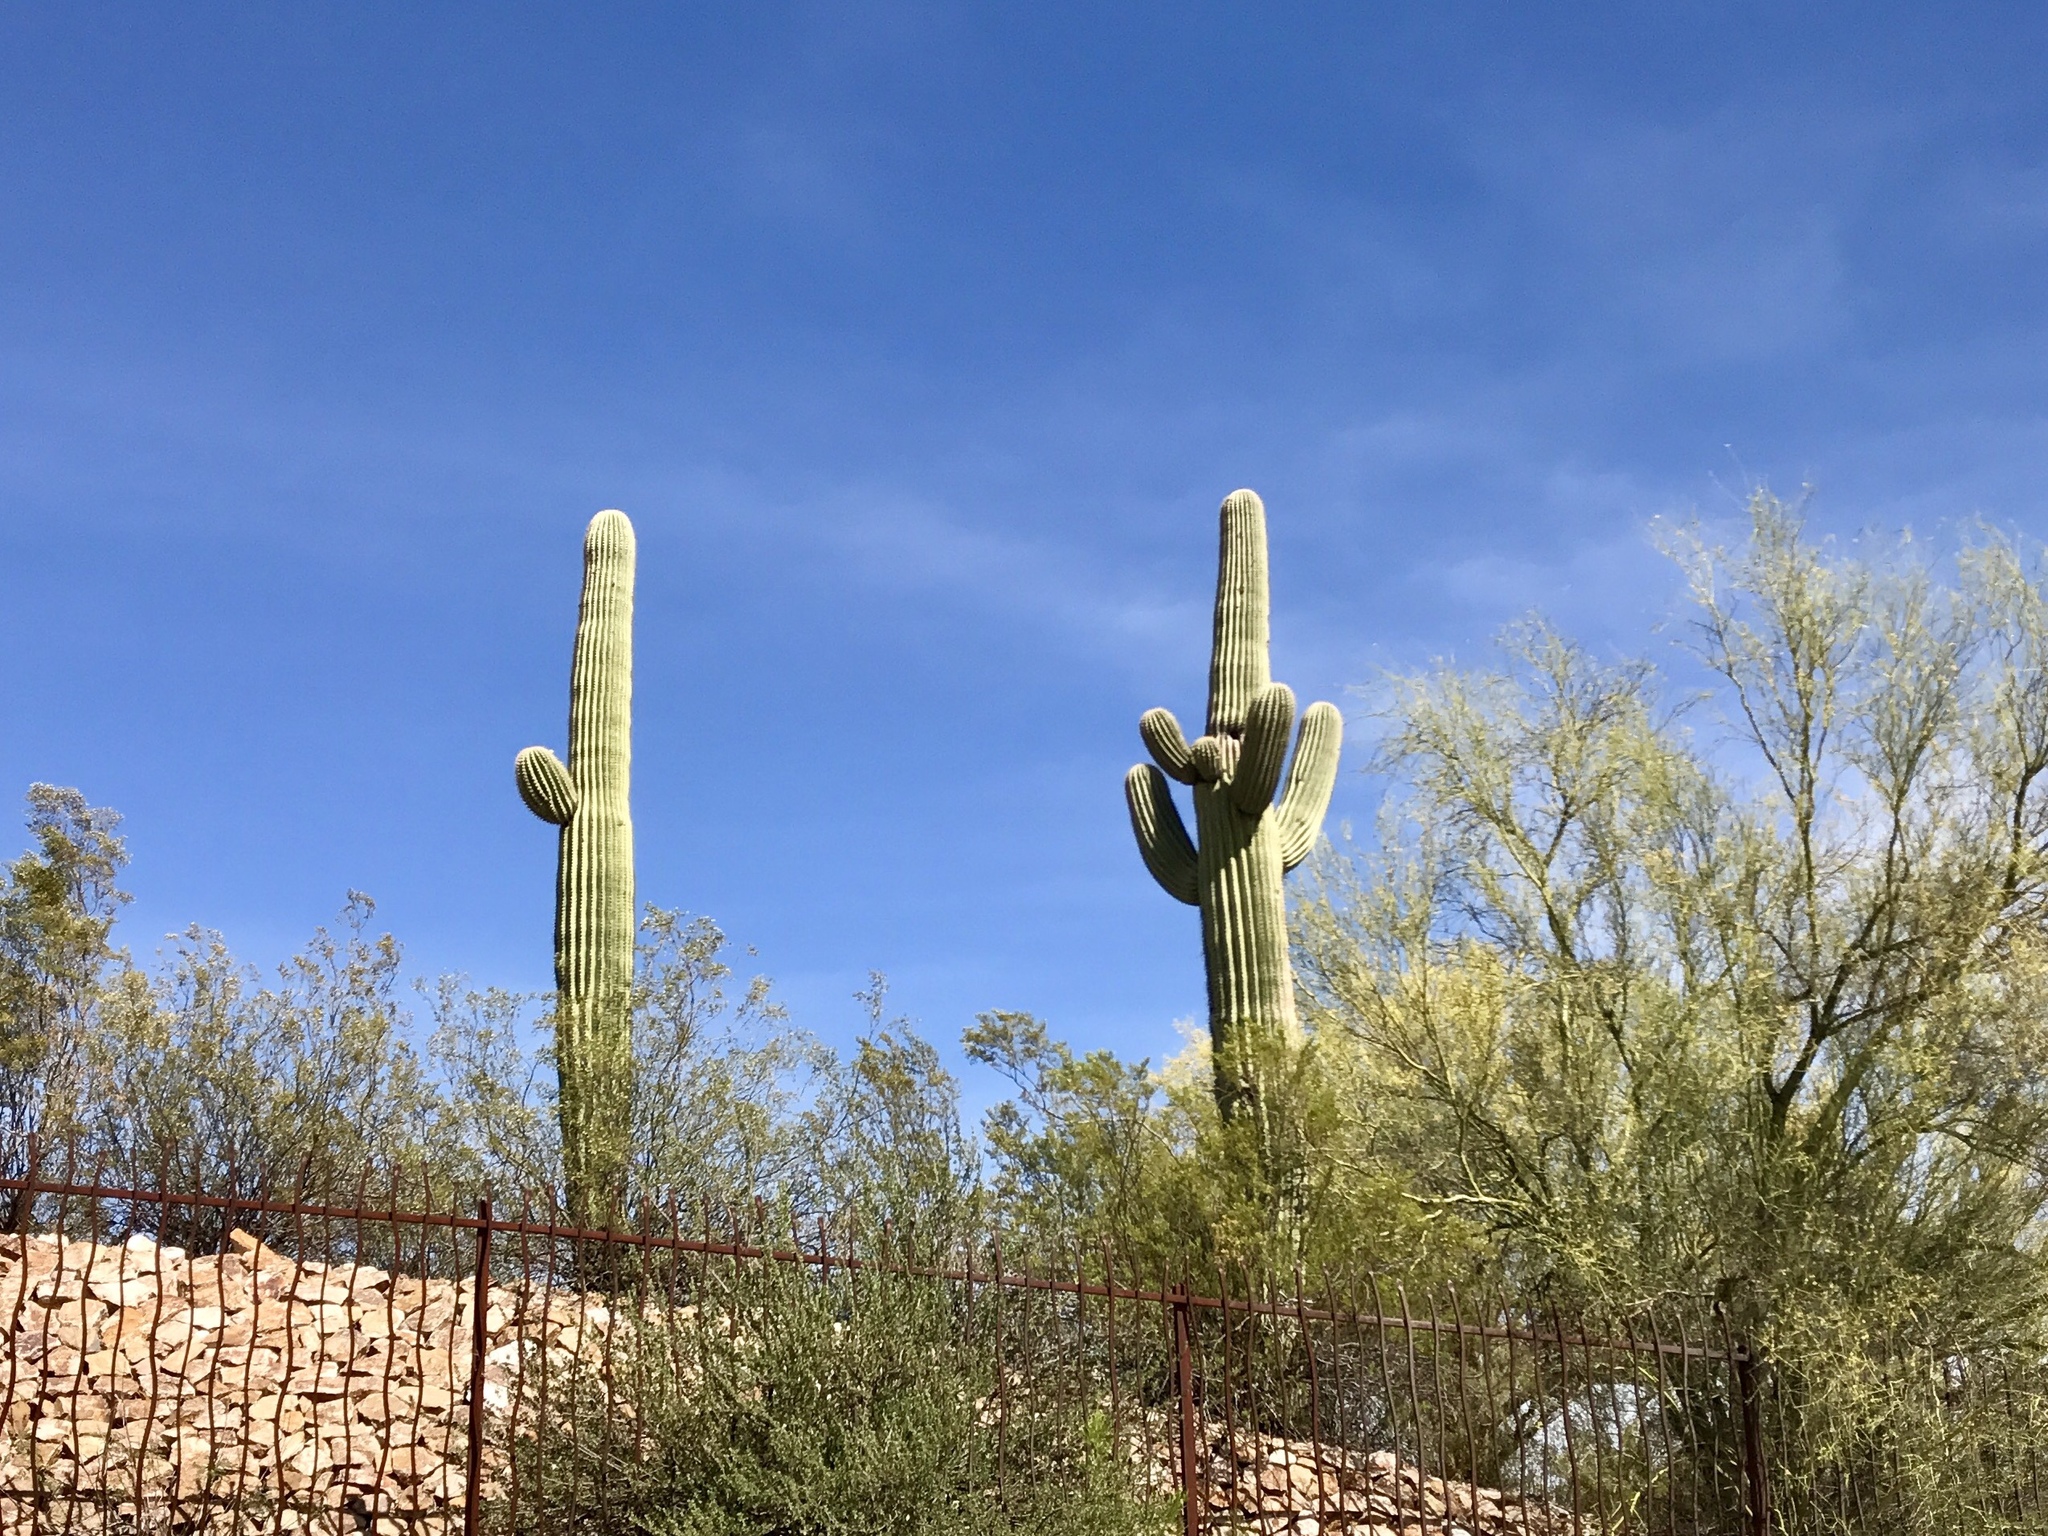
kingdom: Plantae
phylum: Tracheophyta
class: Magnoliopsida
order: Caryophyllales
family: Cactaceae
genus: Carnegiea
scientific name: Carnegiea gigantea
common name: Saguaro
